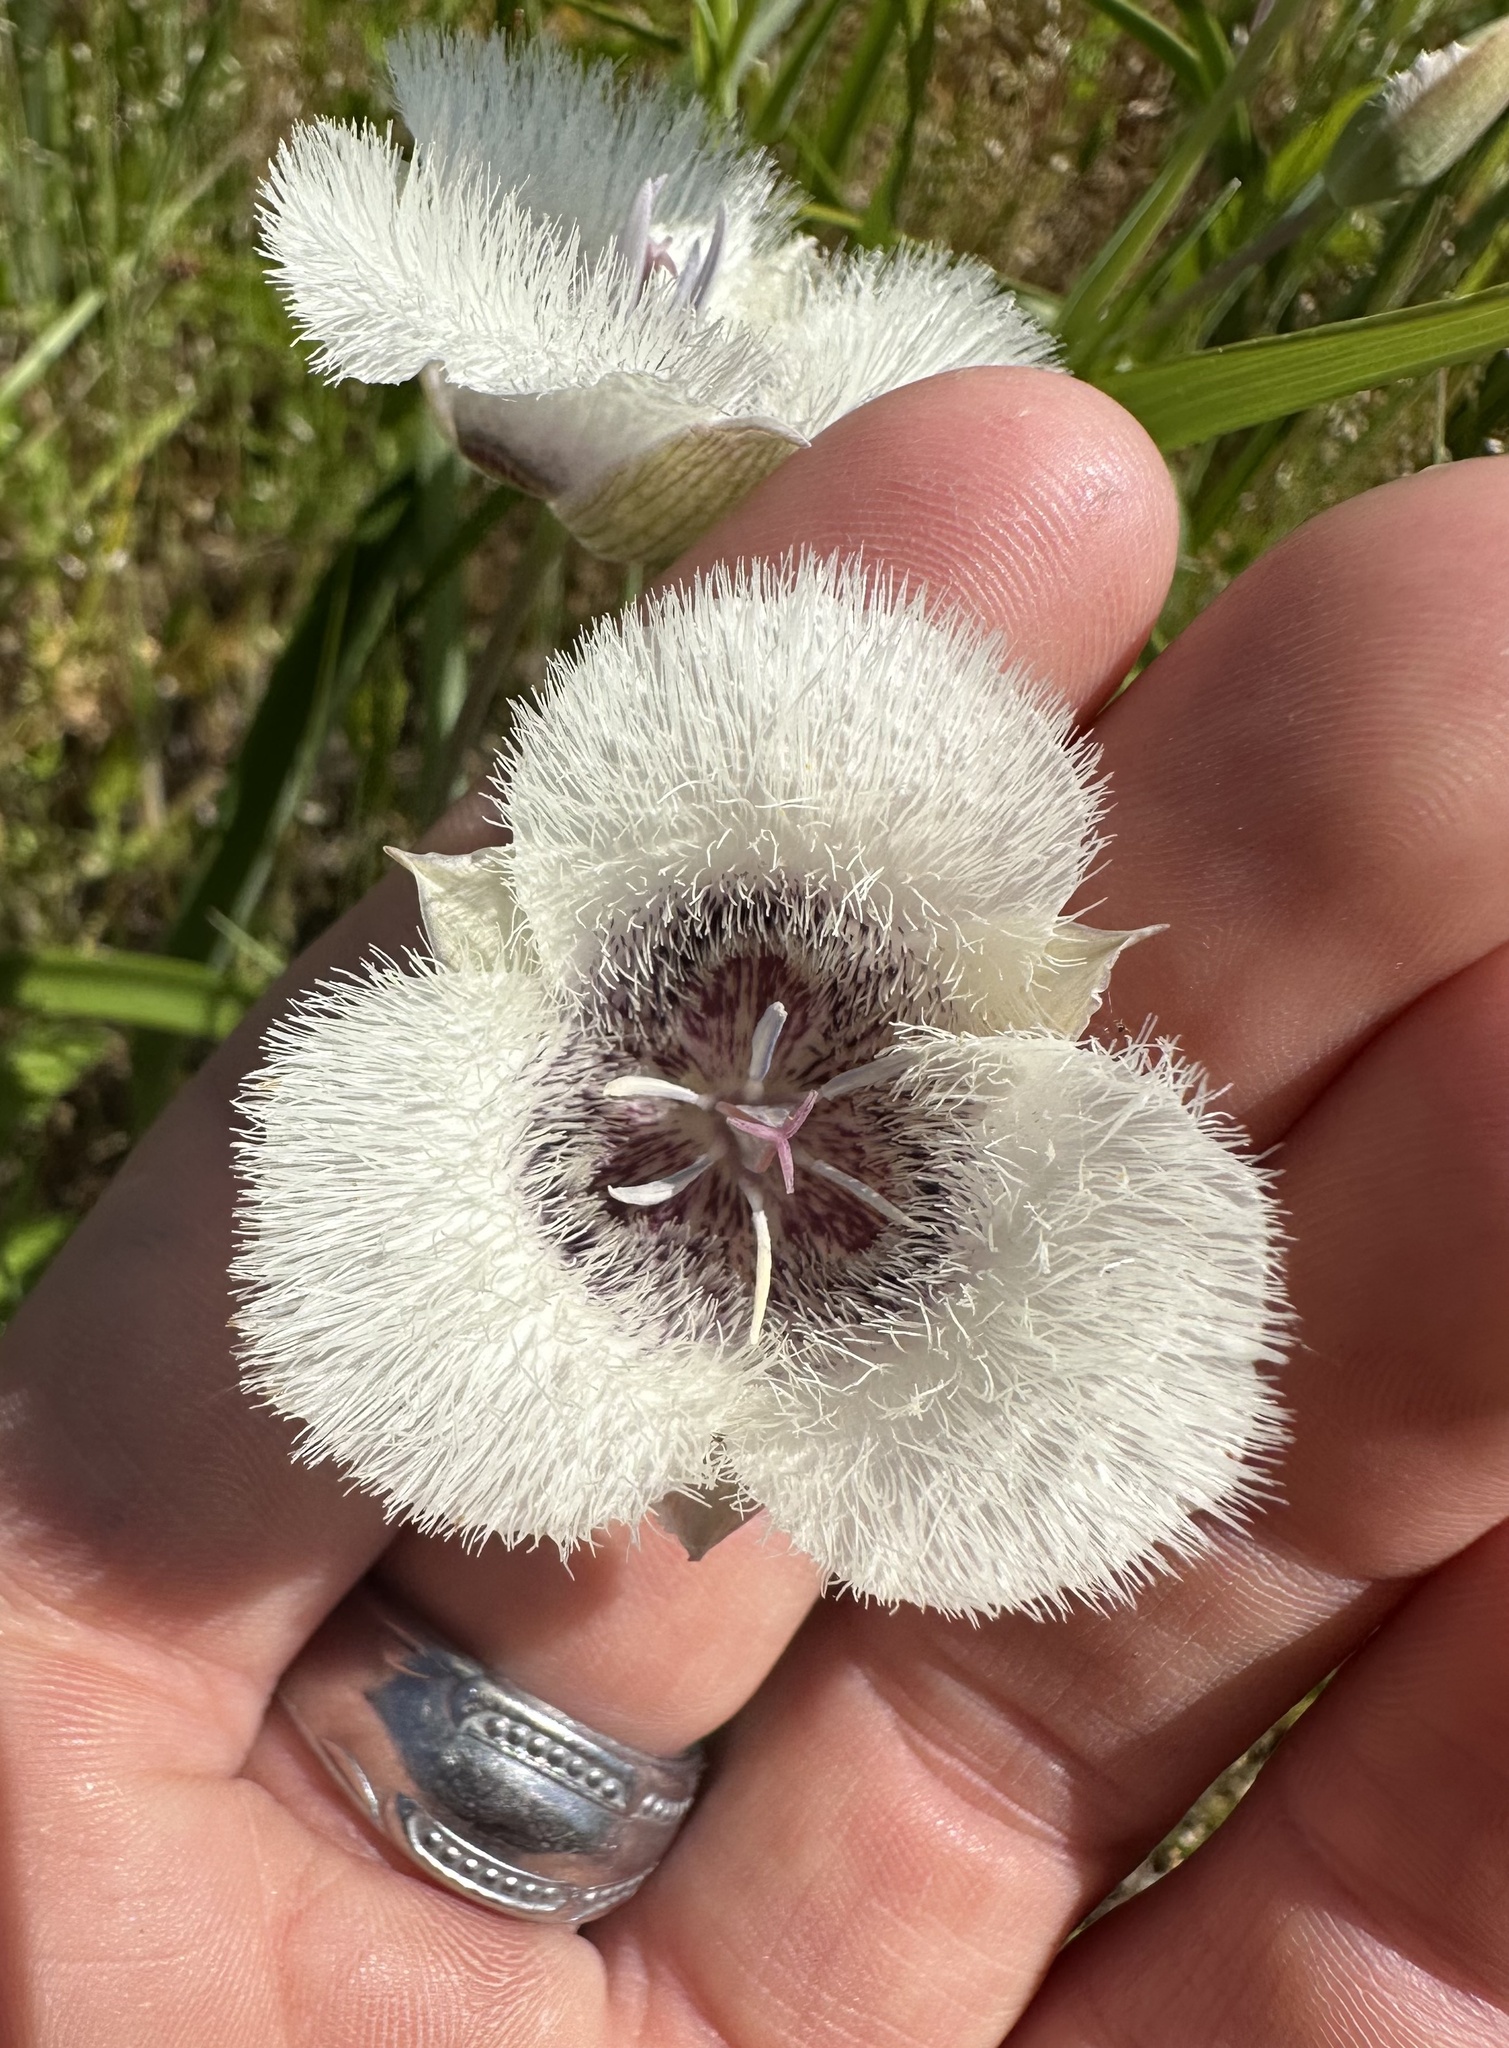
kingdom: Plantae
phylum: Tracheophyta
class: Liliopsida
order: Liliales
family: Liliaceae
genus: Calochortus
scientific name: Calochortus tolmiei
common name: Pussy-ears
